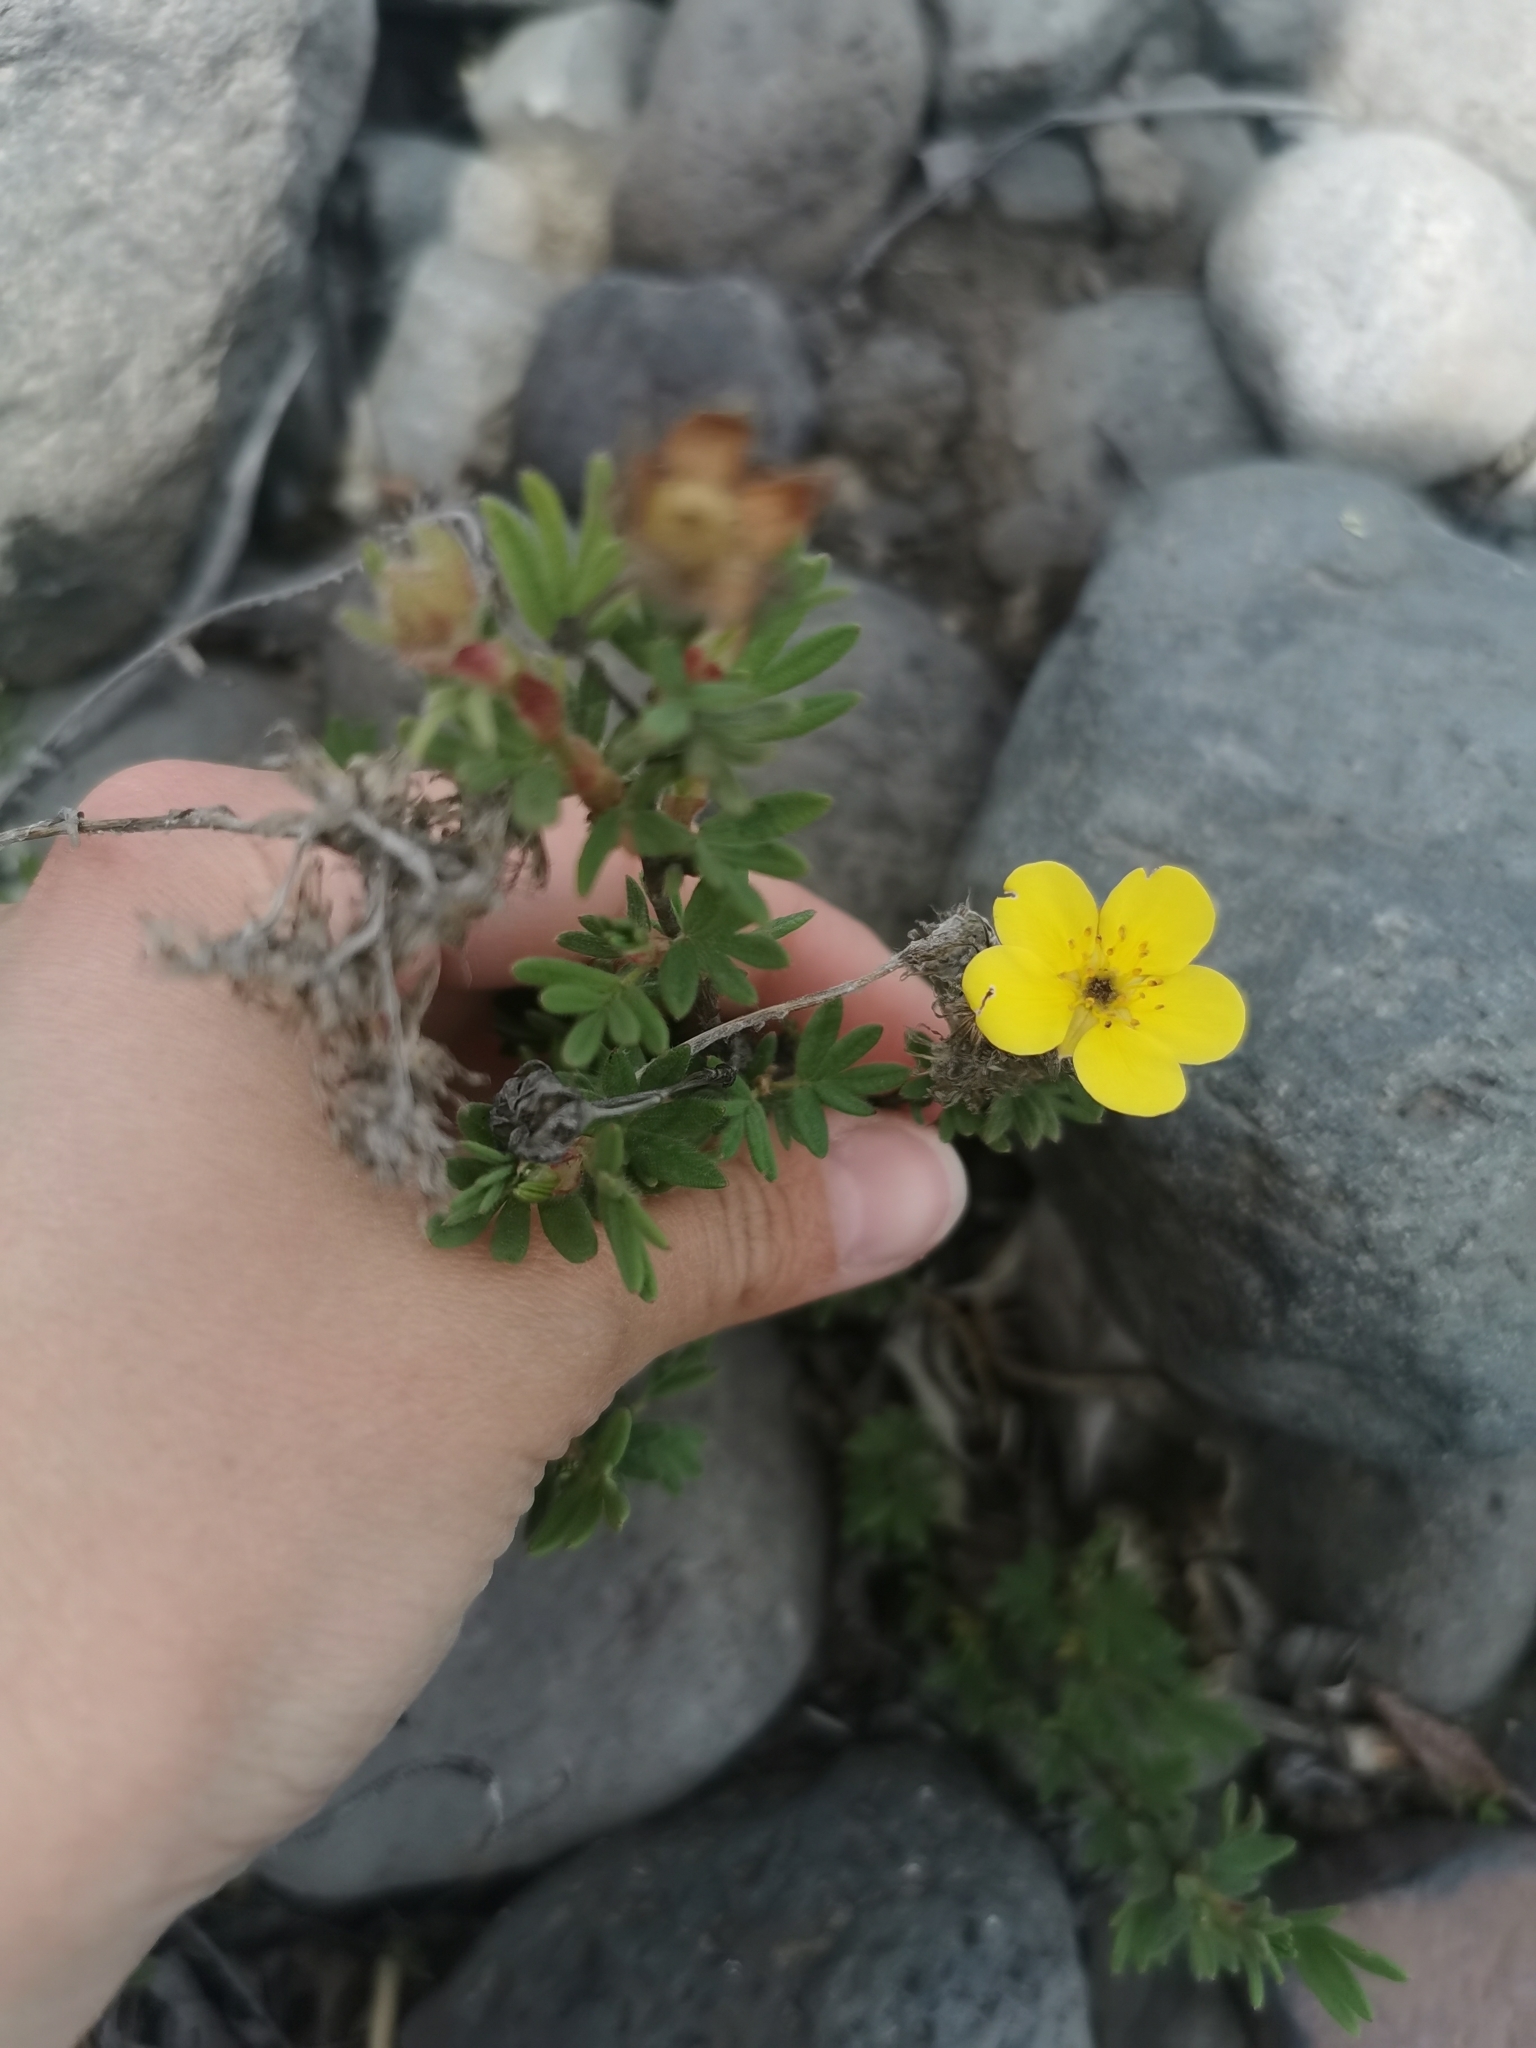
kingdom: Plantae
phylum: Tracheophyta
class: Magnoliopsida
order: Rosales
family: Rosaceae
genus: Dasiphora
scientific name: Dasiphora fruticosa
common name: Shrubby cinquefoil
